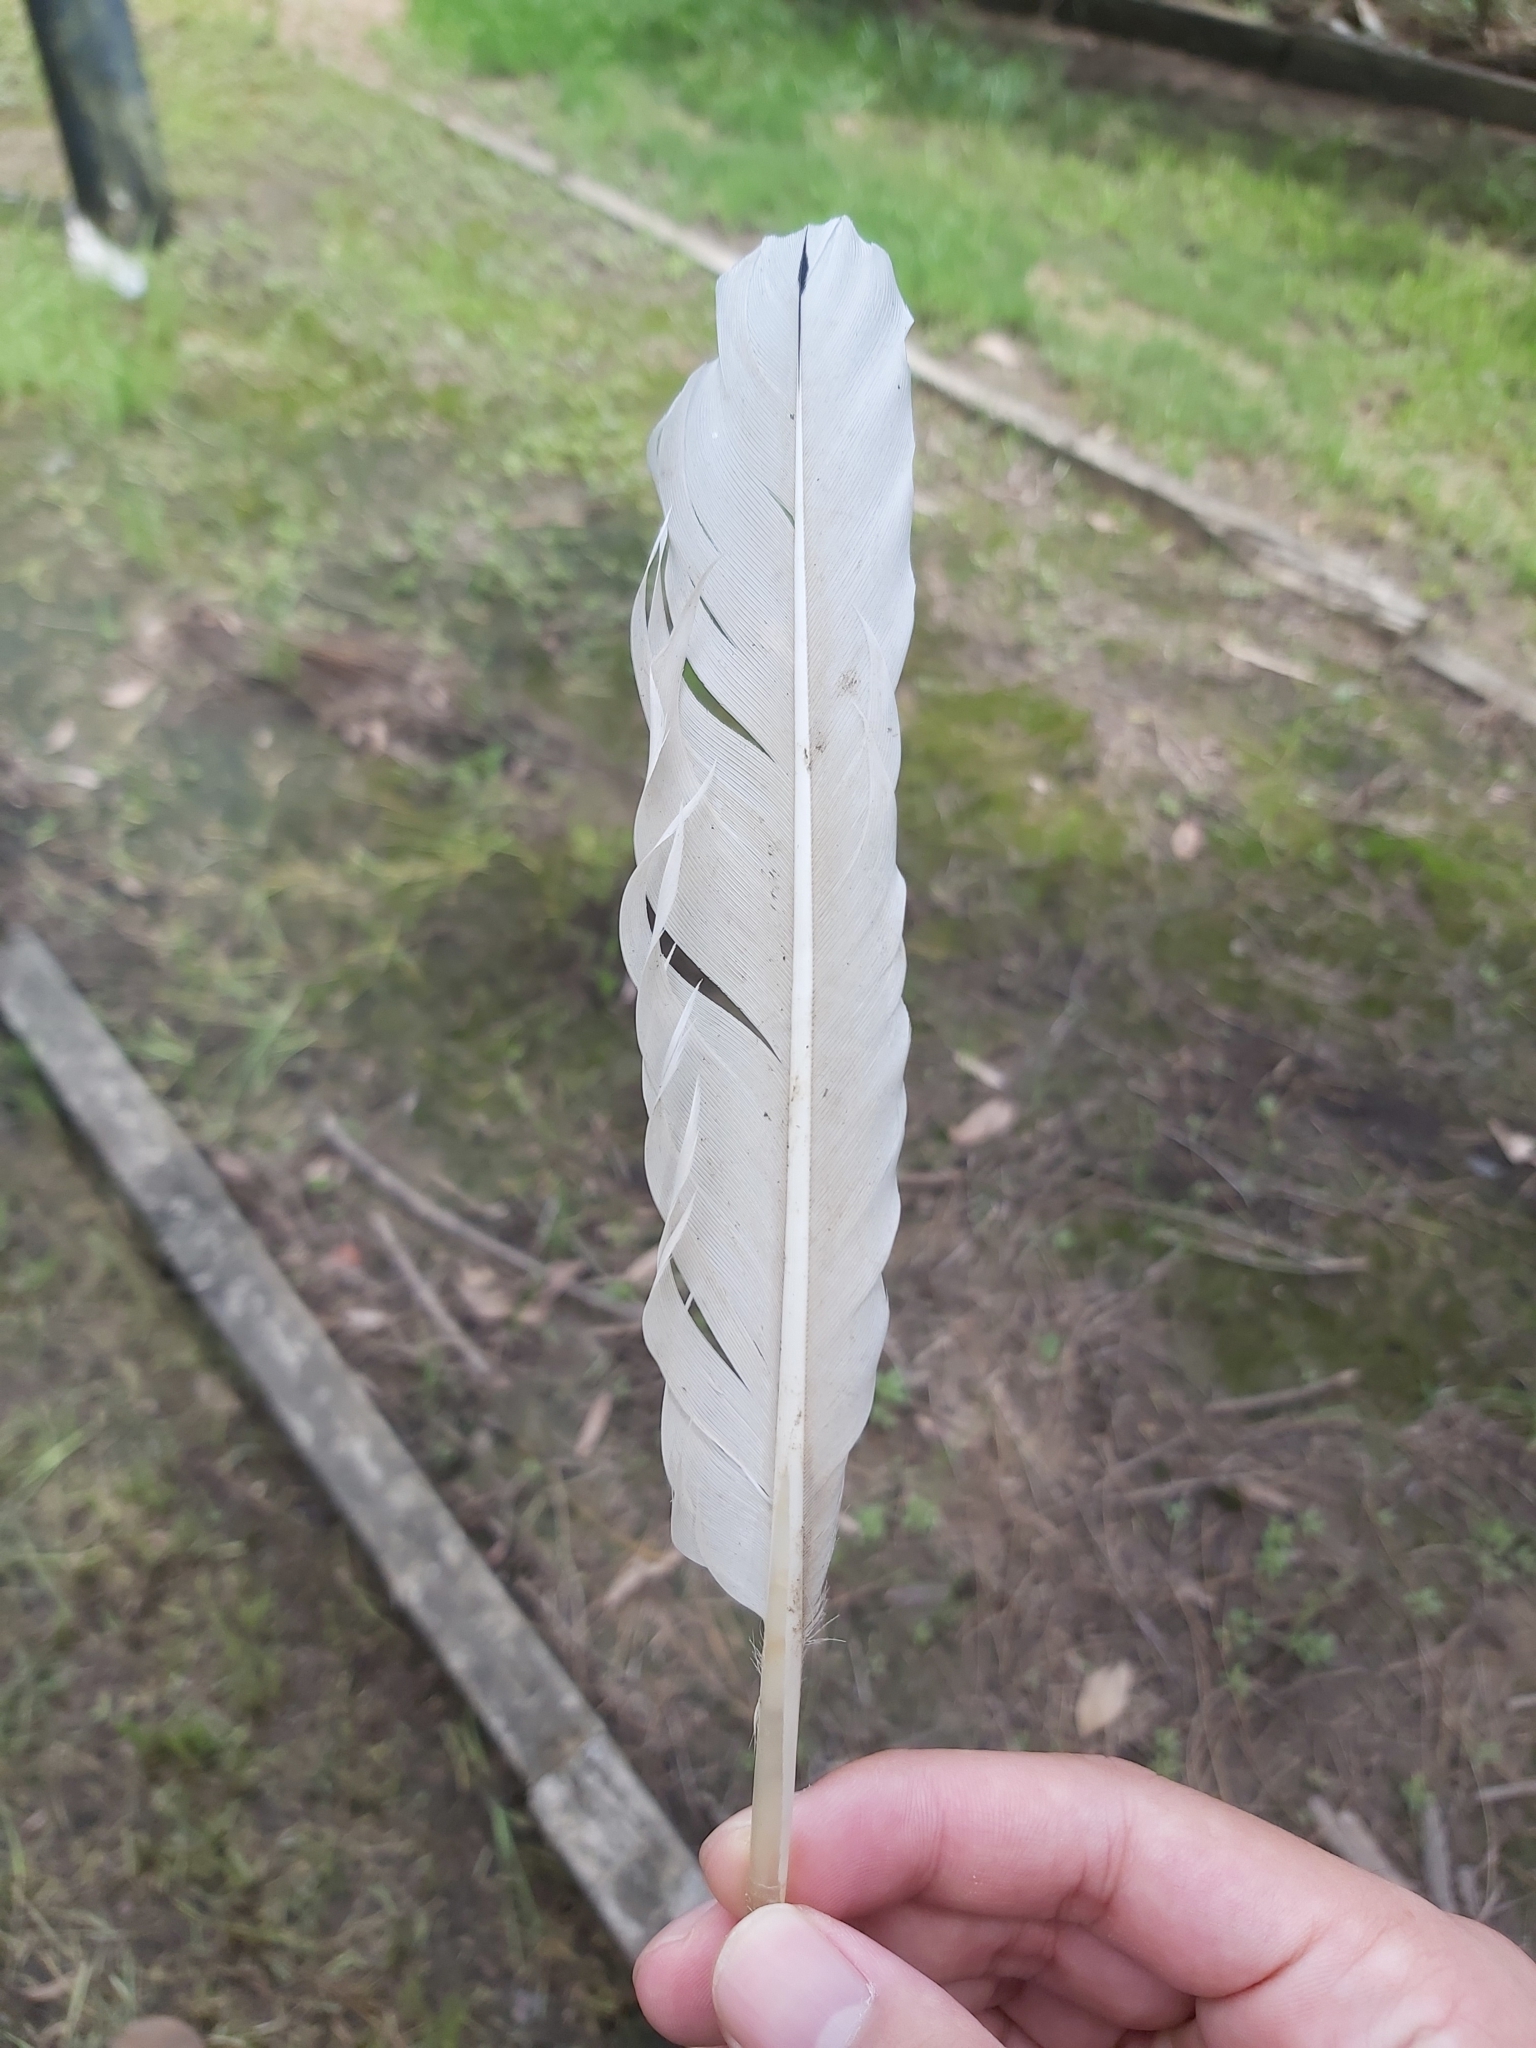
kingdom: Animalia
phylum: Chordata
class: Aves
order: Pelecaniformes
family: Threskiornithidae
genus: Threskiornis
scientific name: Threskiornis molucca
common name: Australian white ibis
